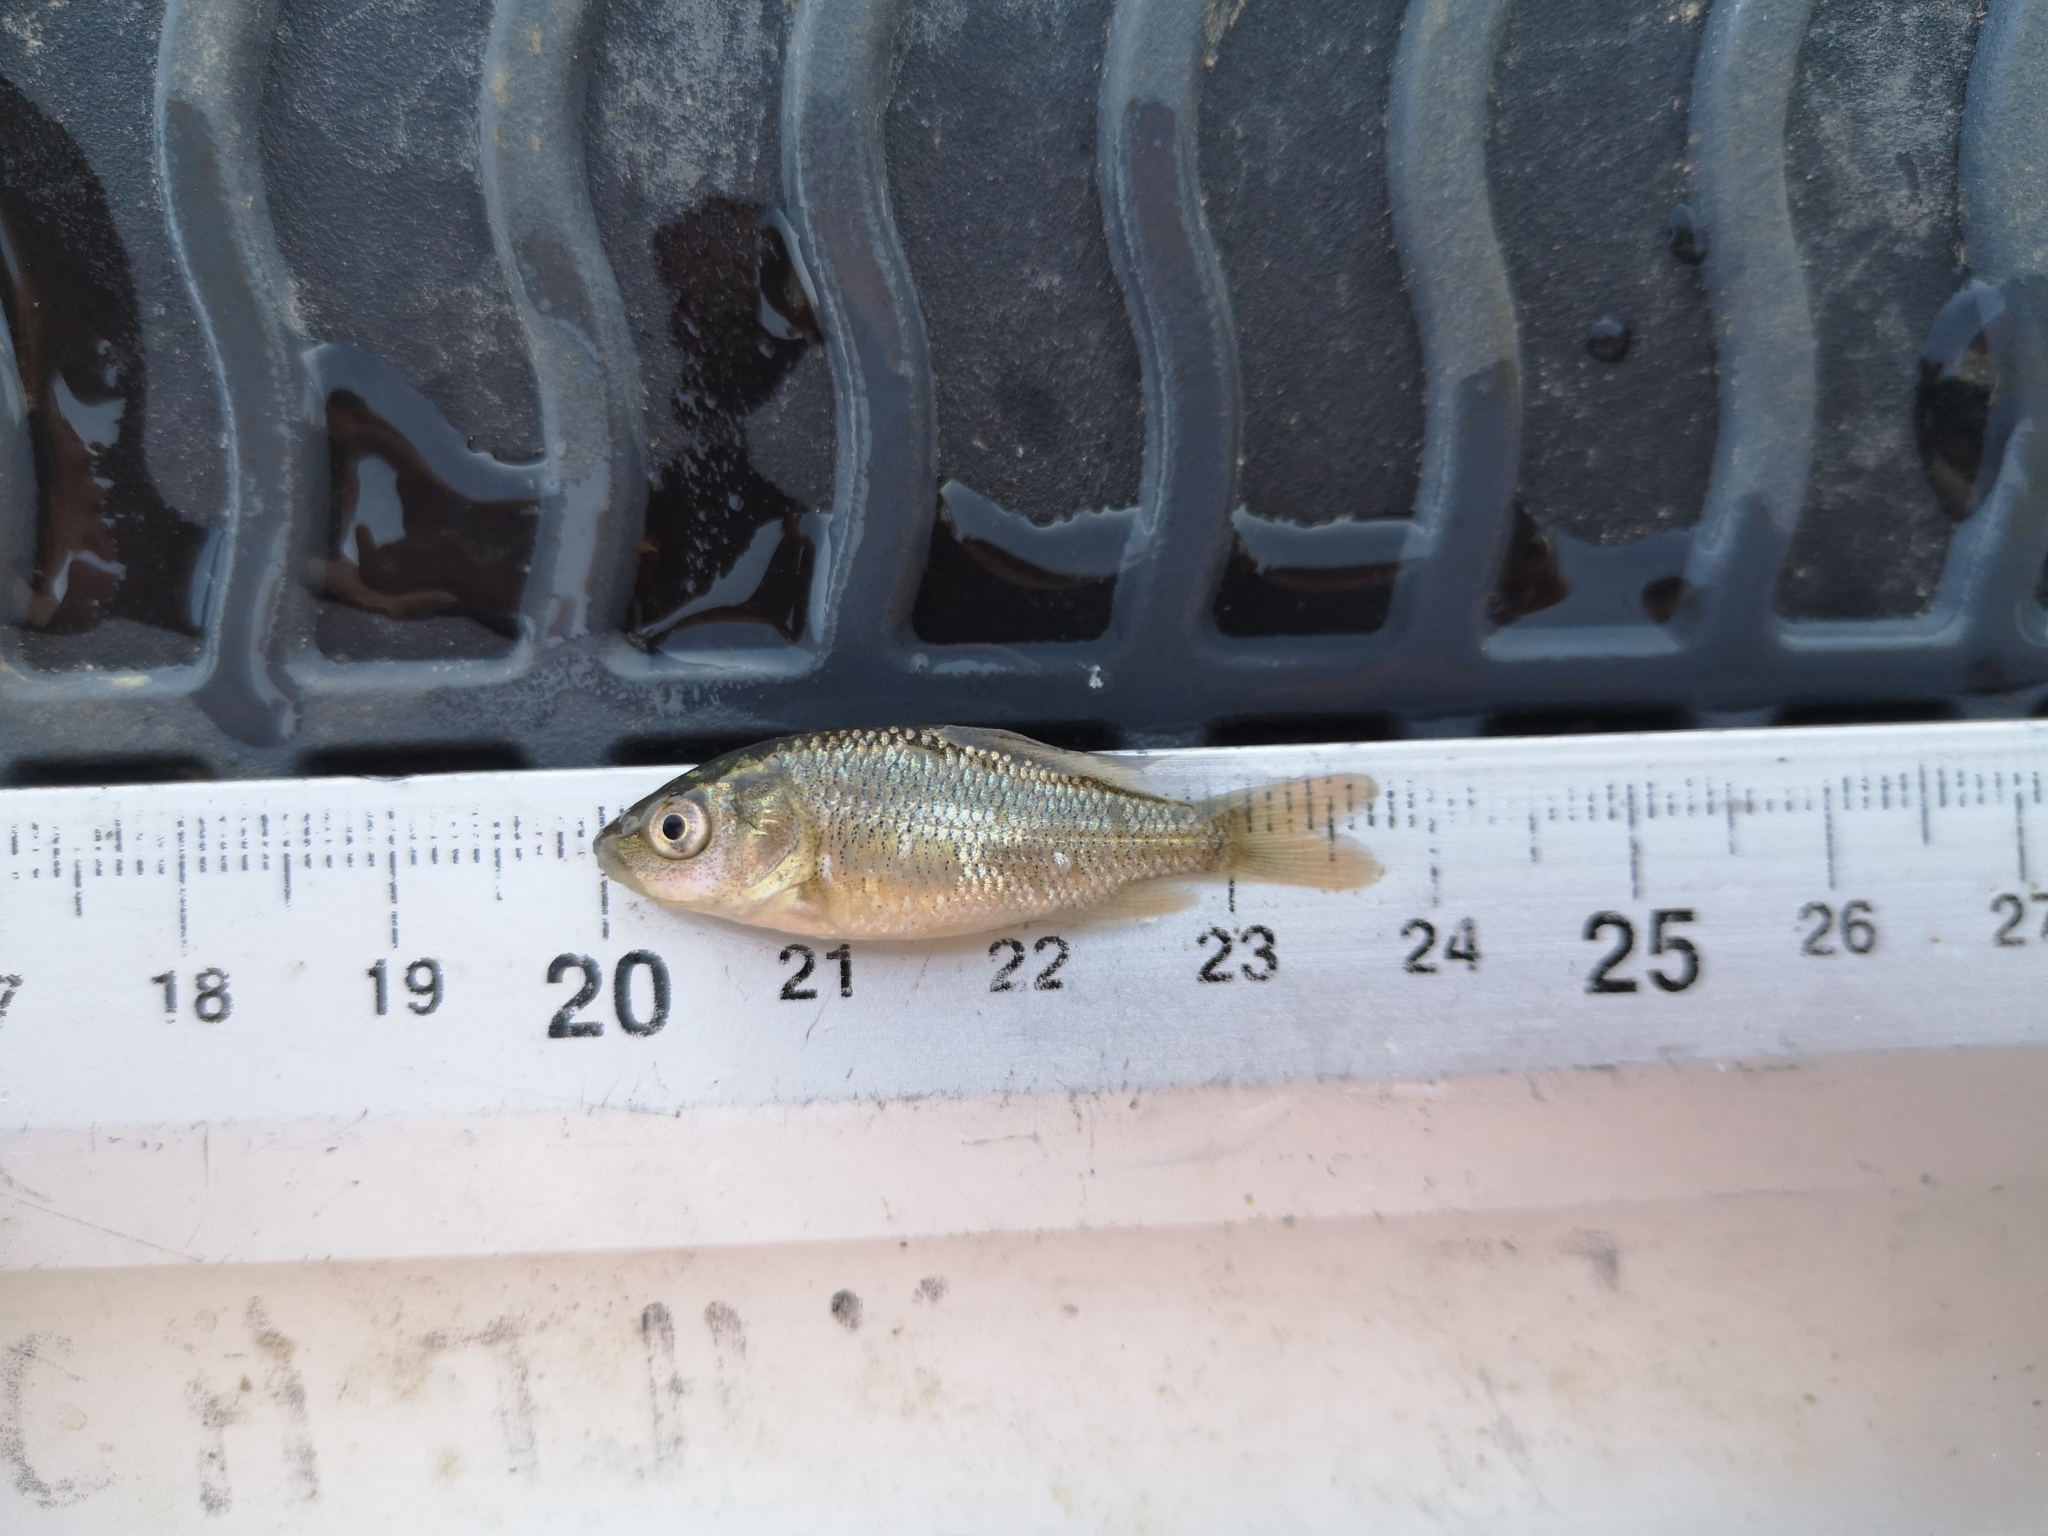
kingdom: Animalia
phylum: Chordata
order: Cypriniformes
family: Cyprinidae
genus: Carassius
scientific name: Carassius gibelio
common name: Prussian carp
